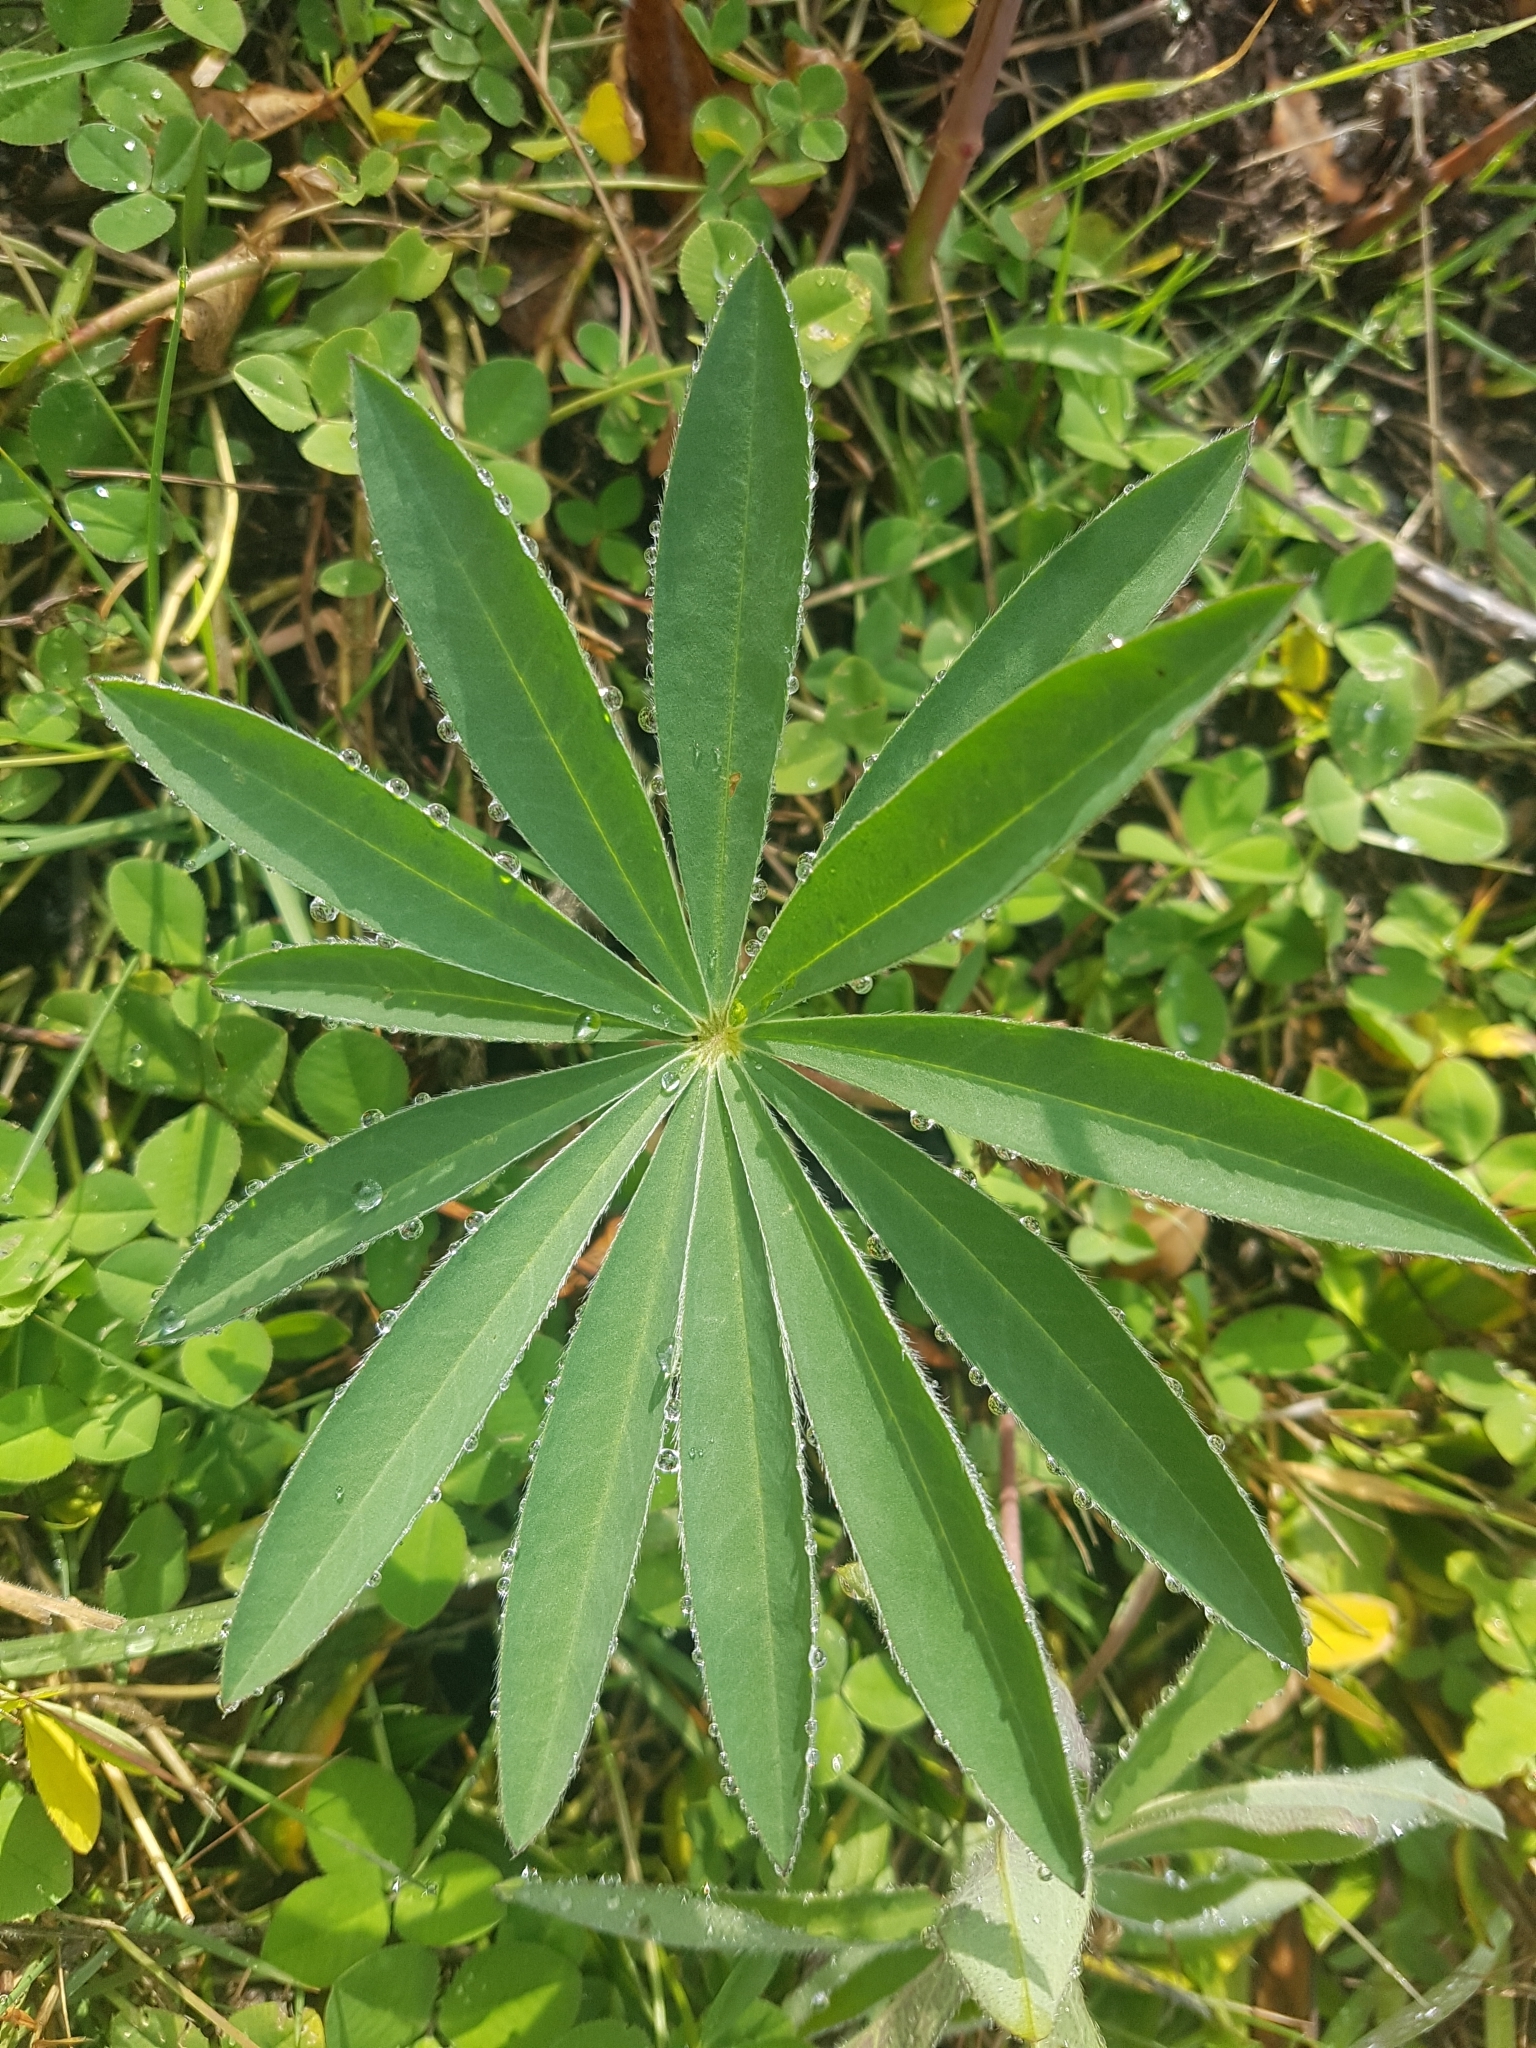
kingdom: Plantae
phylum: Tracheophyta
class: Magnoliopsida
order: Fabales
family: Fabaceae
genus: Lupinus
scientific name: Lupinus polyphyllus
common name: Garden lupin
